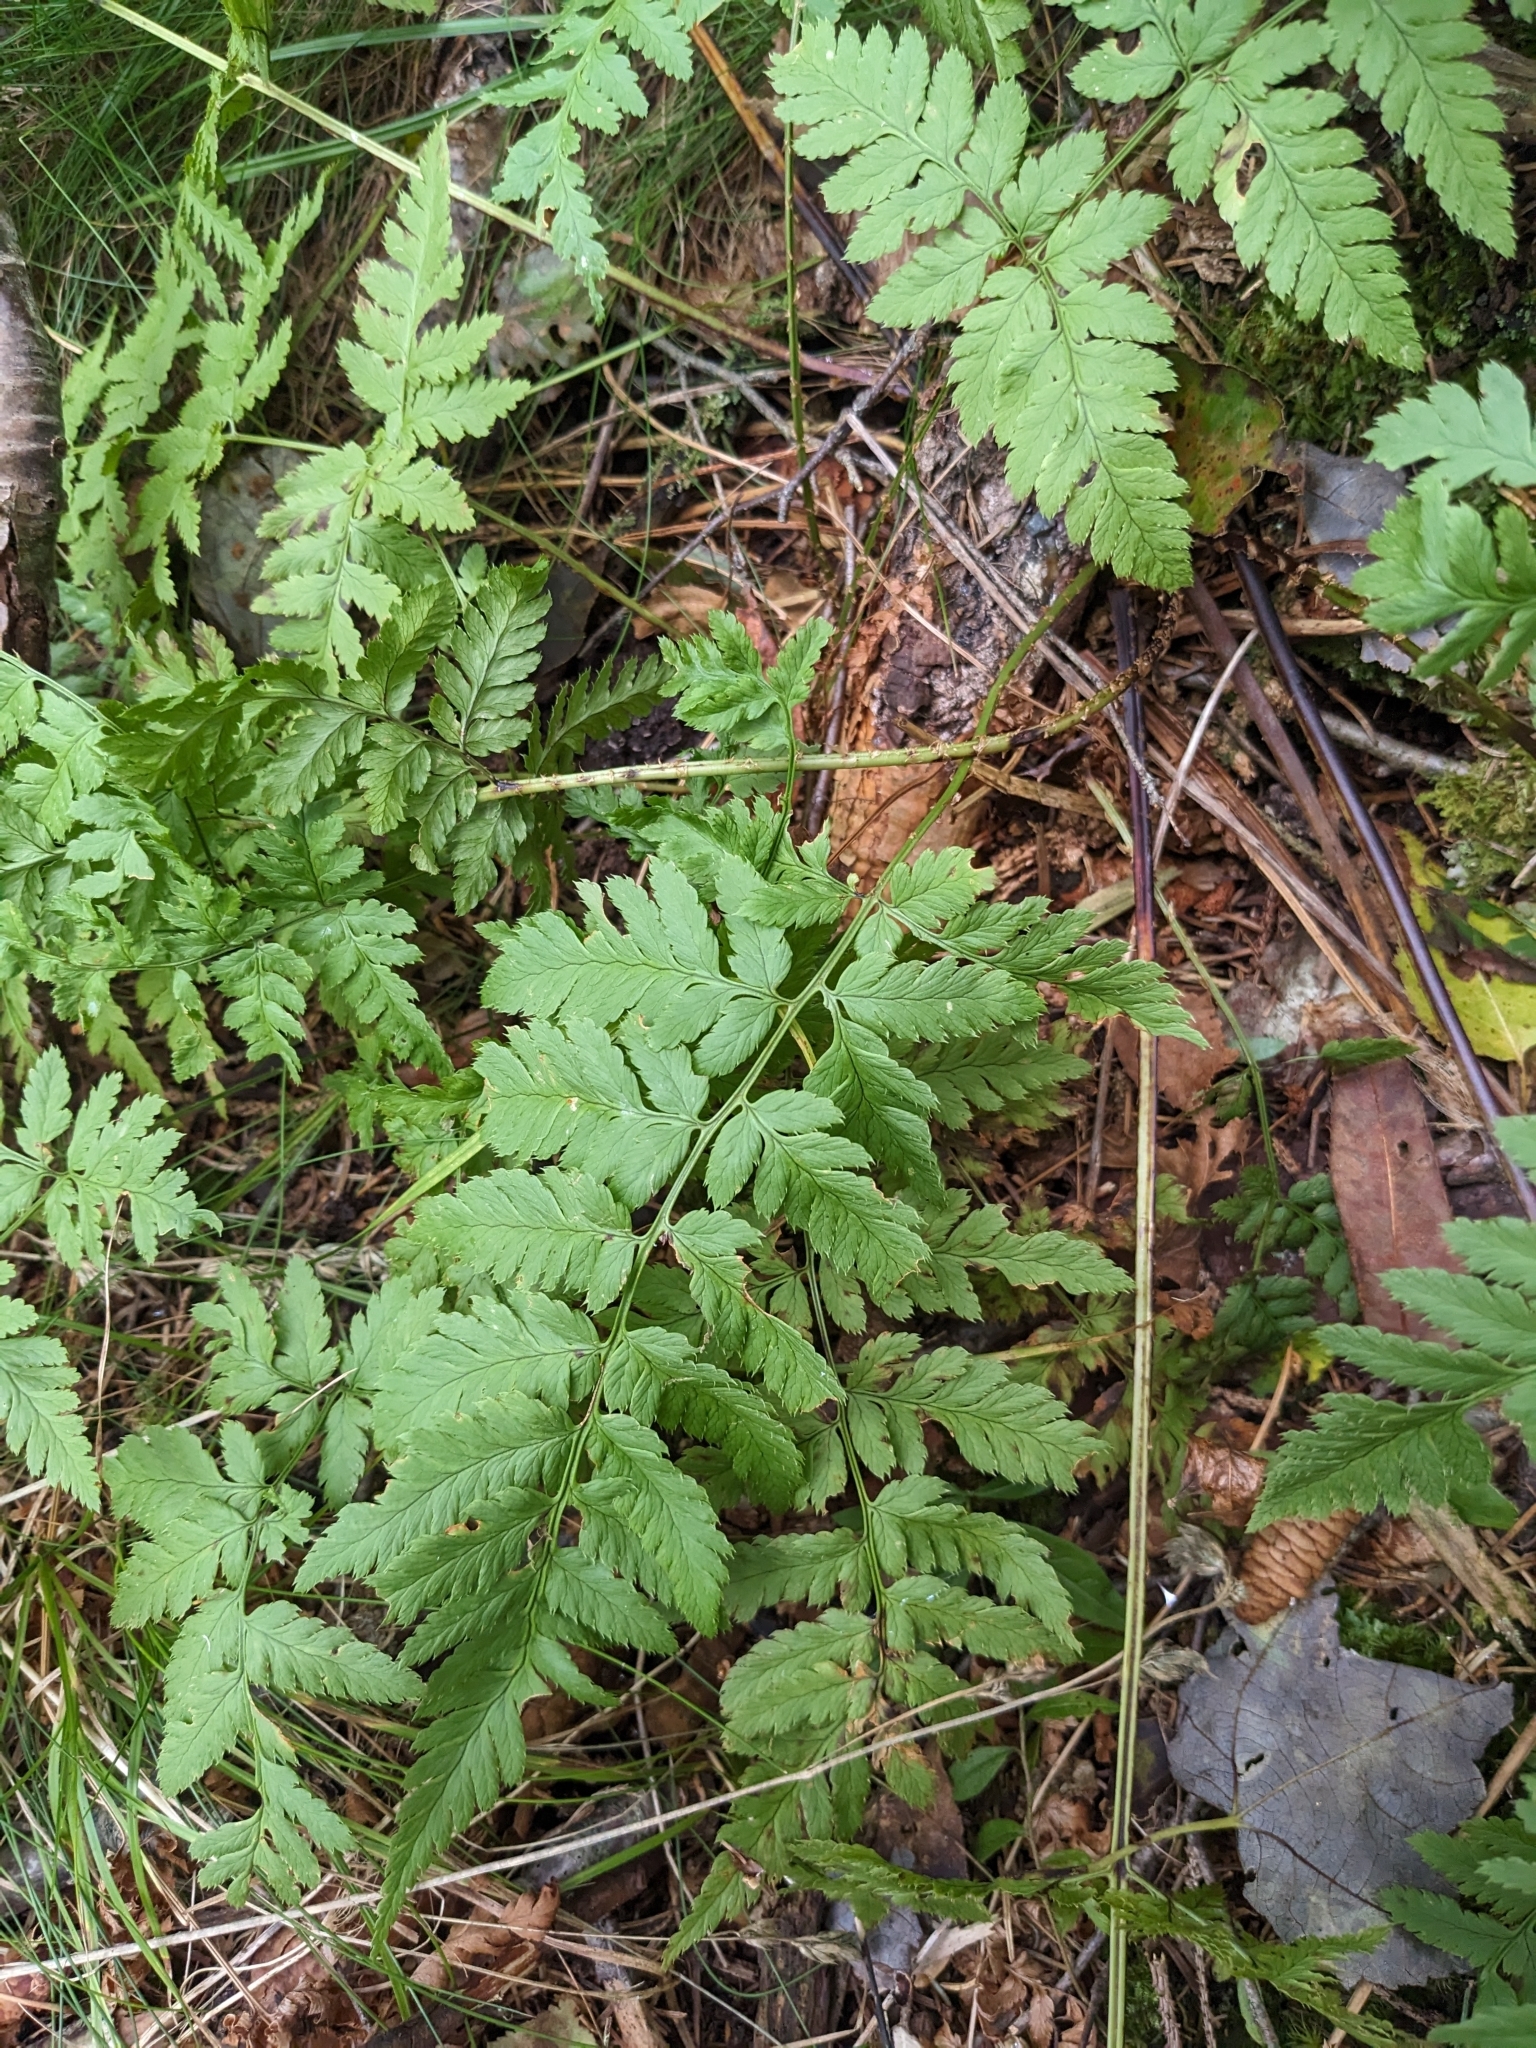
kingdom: Plantae
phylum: Tracheophyta
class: Polypodiopsida
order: Polypodiales
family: Dryopteridaceae
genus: Dryopteris
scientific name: Dryopteris carthusiana
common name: Narrow buckler-fern
